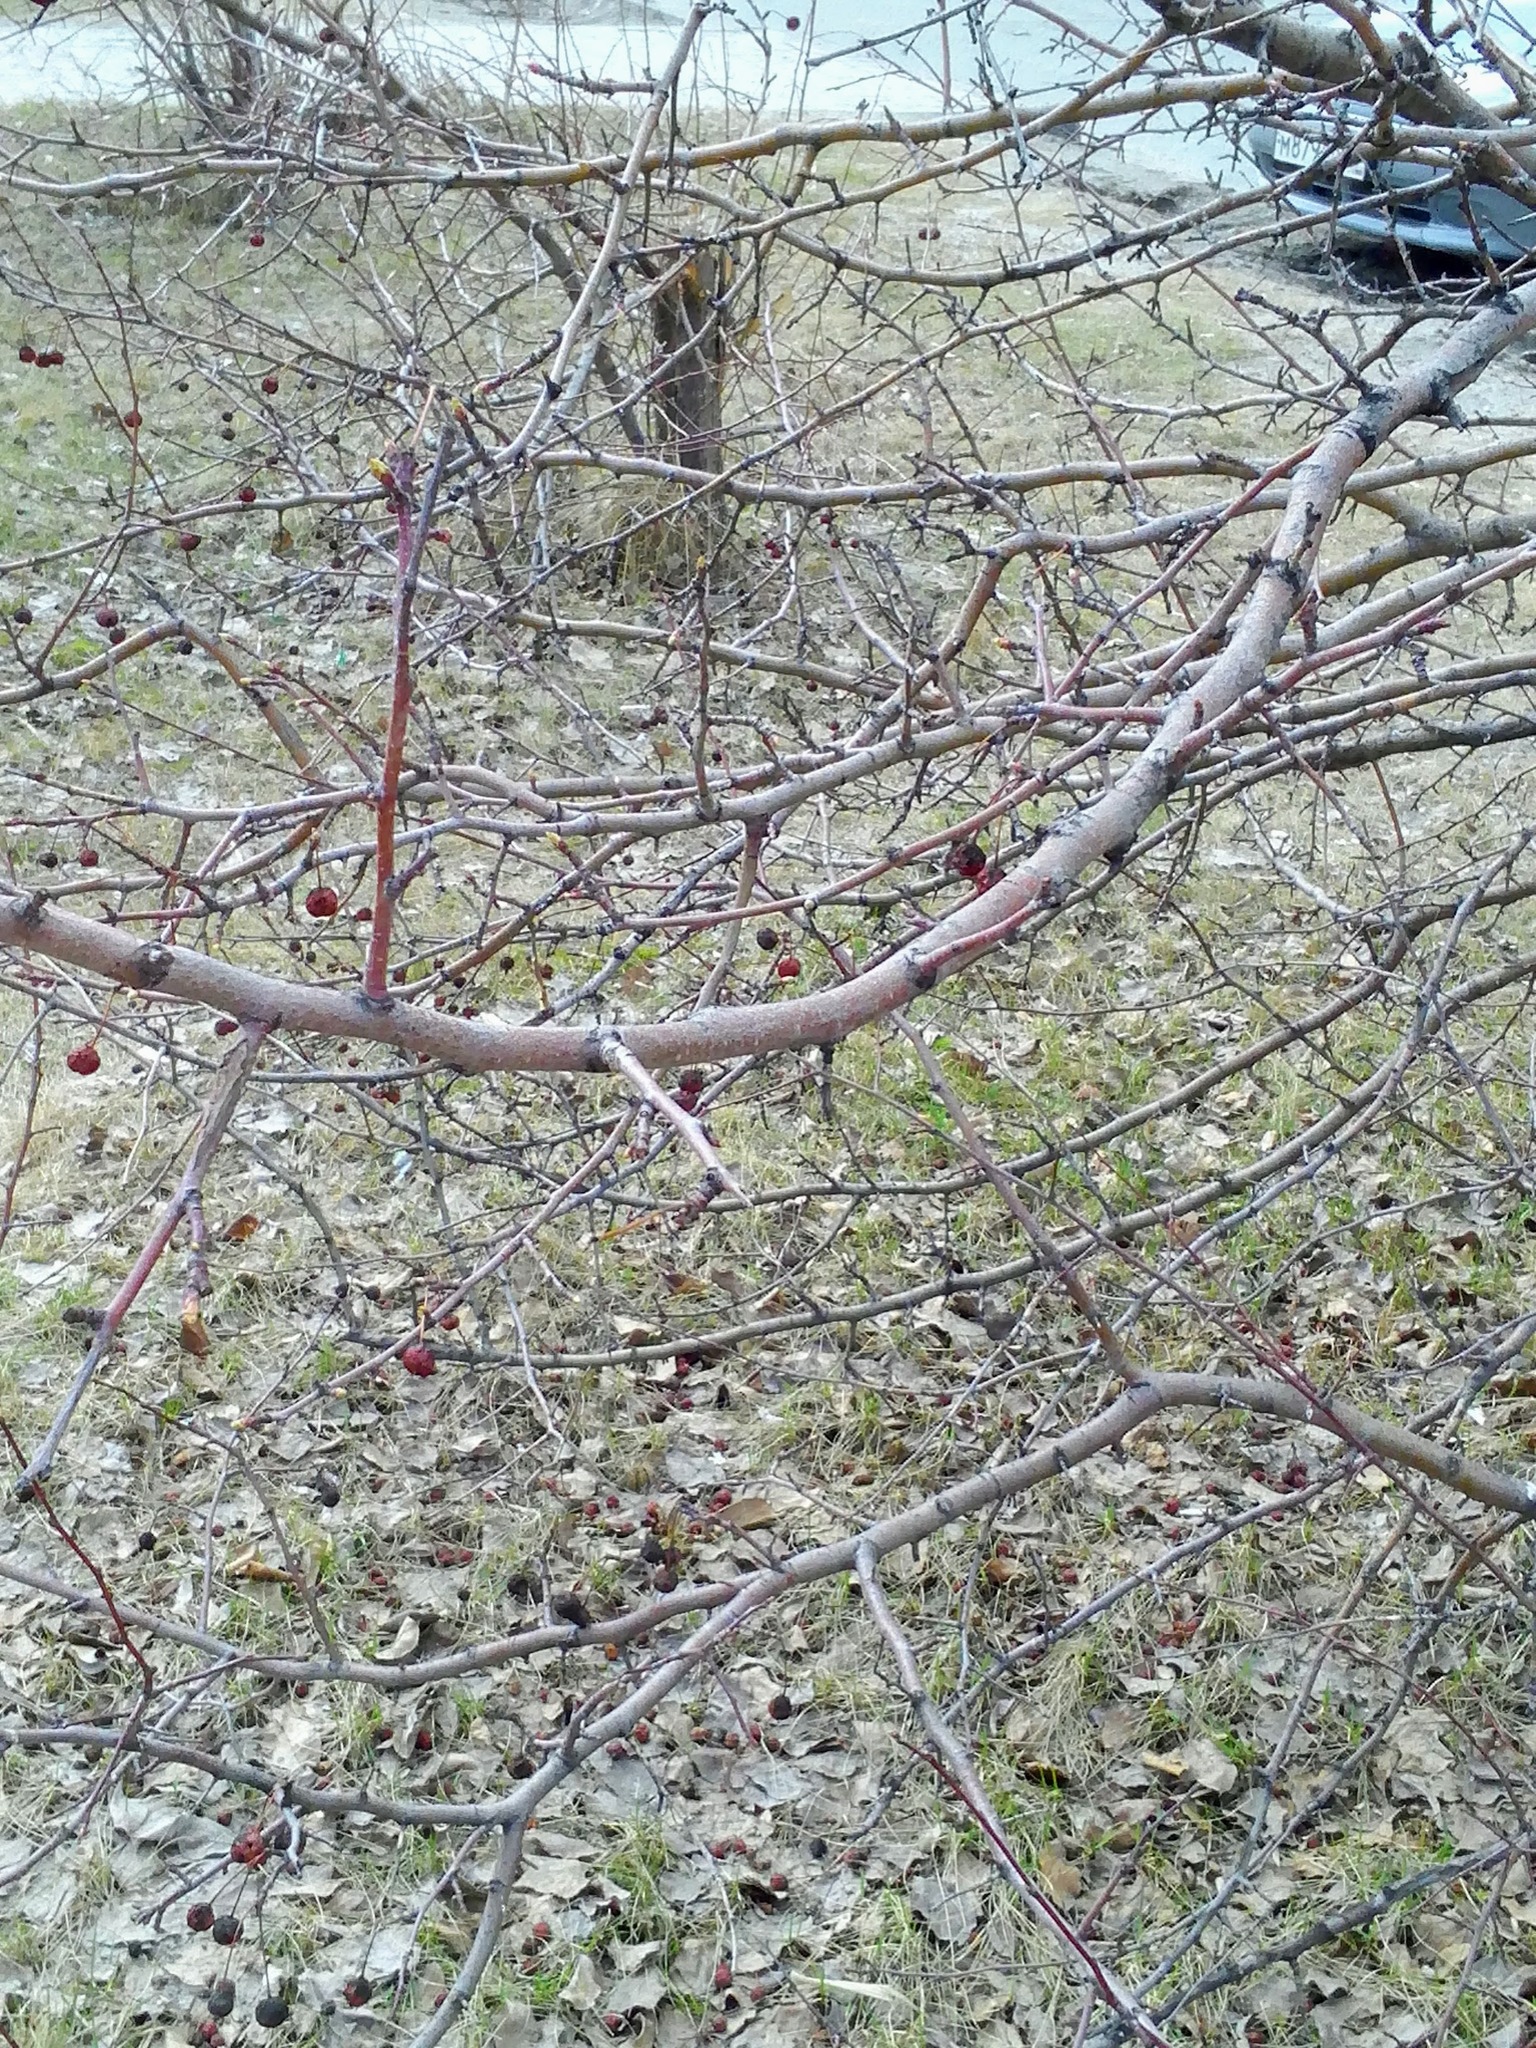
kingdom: Plantae
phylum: Tracheophyta
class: Magnoliopsida
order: Rosales
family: Rosaceae
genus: Malus
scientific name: Malus baccata
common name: Siberian crab
